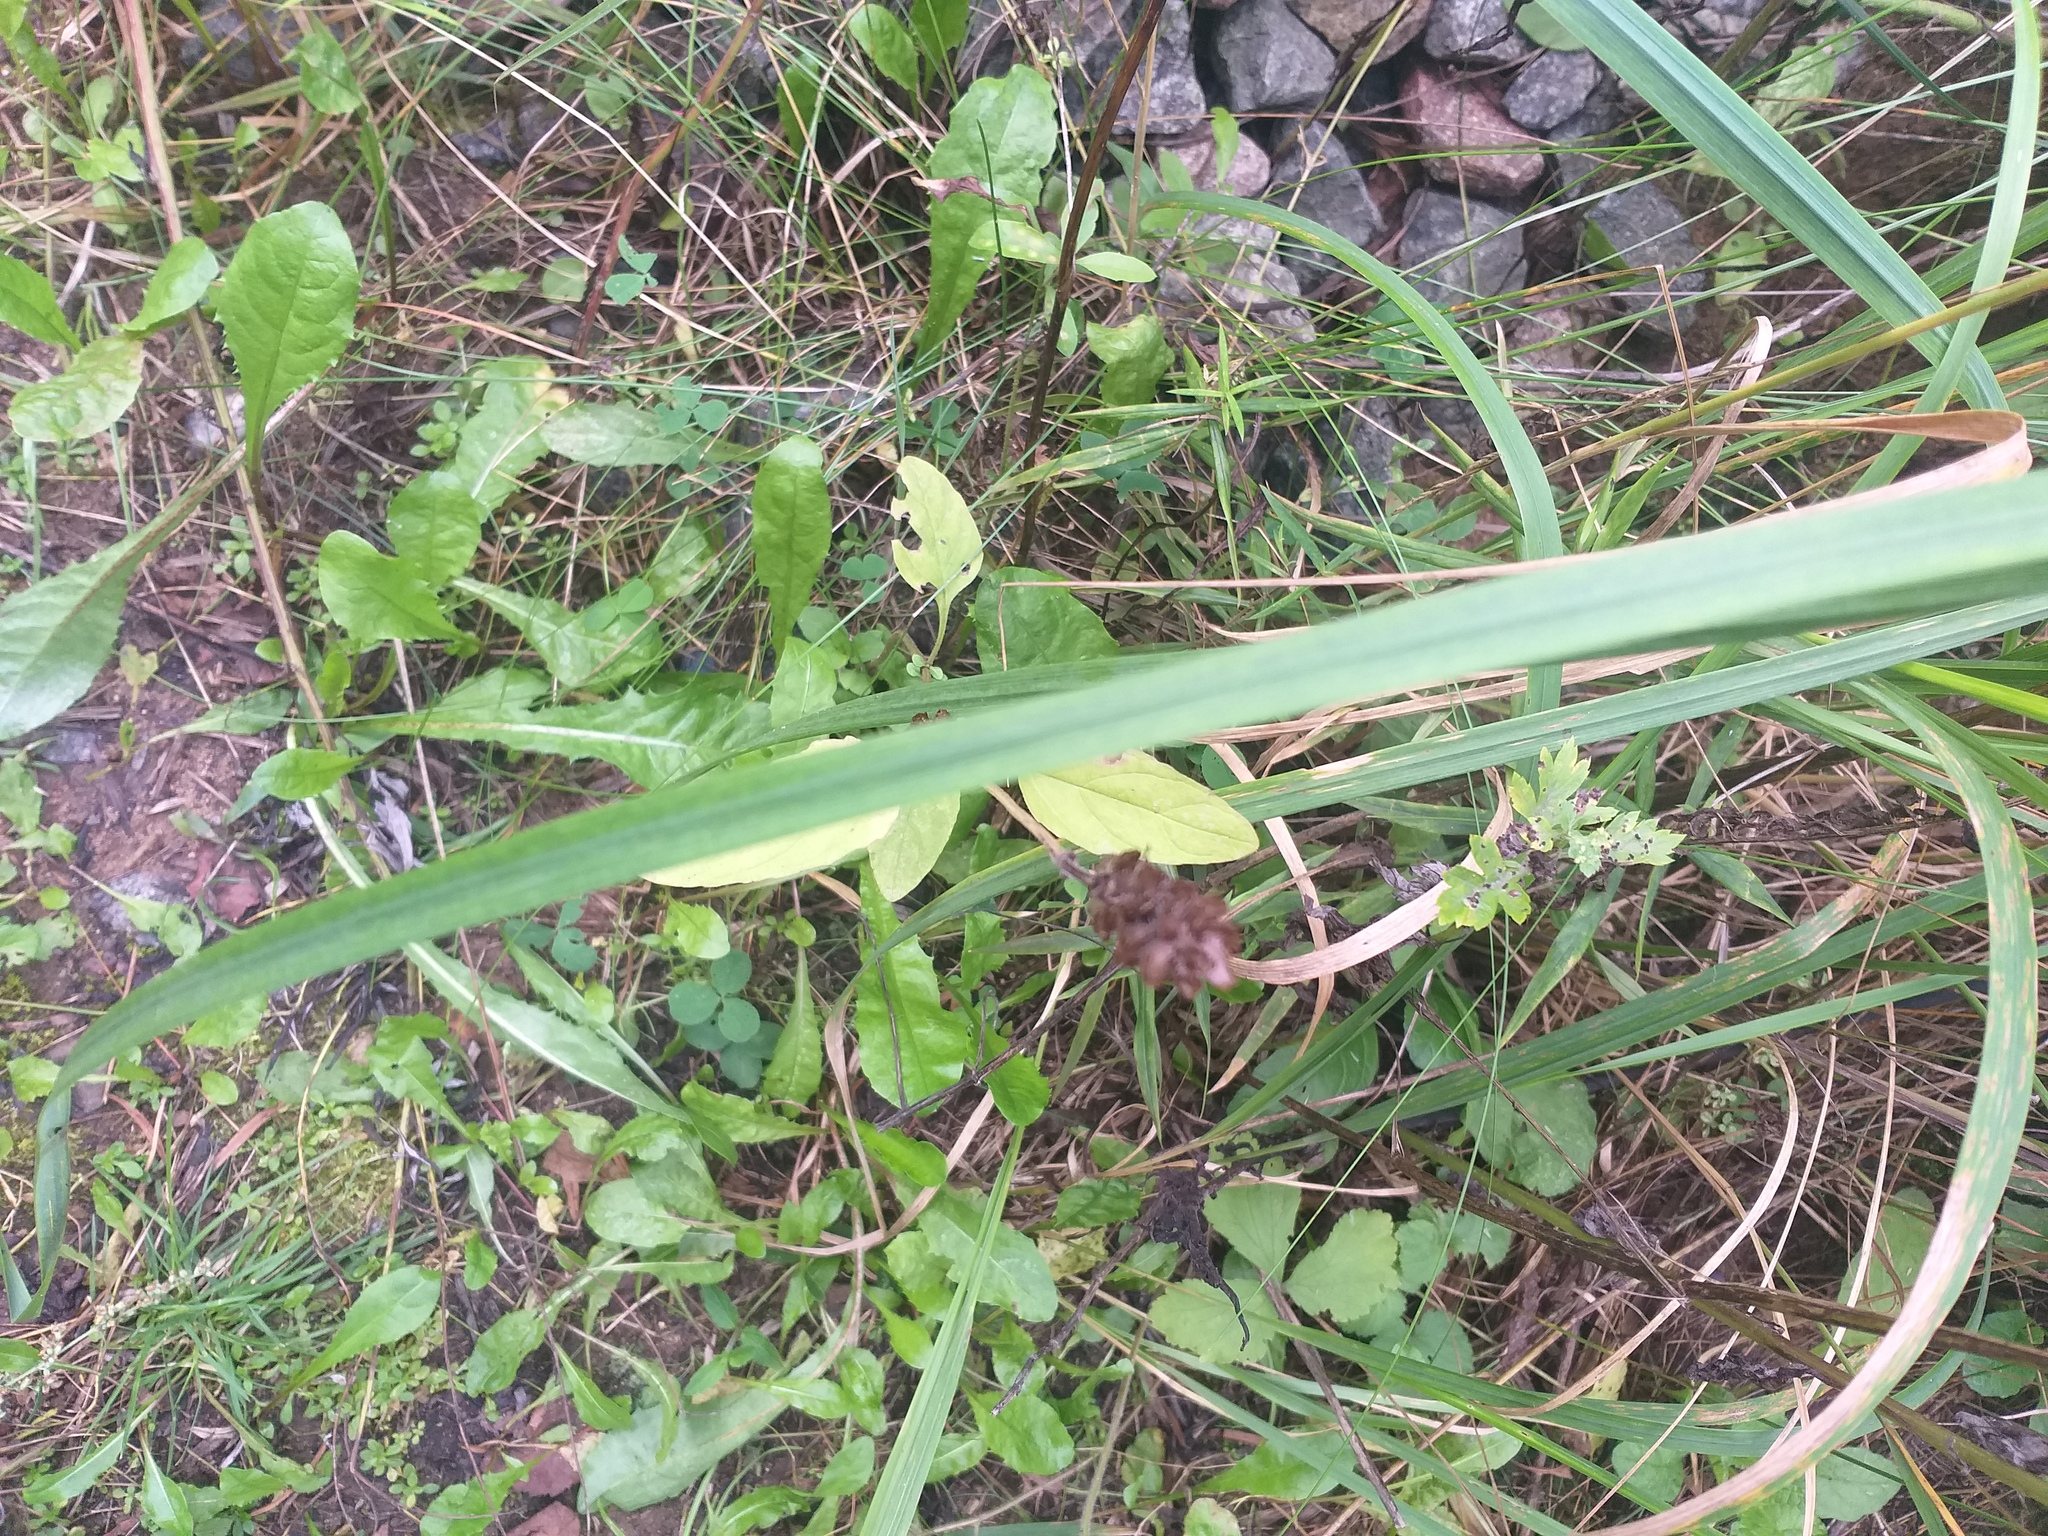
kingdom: Plantae
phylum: Tracheophyta
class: Magnoliopsida
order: Lamiales
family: Lamiaceae
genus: Prunella
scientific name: Prunella vulgaris
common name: Heal-all
